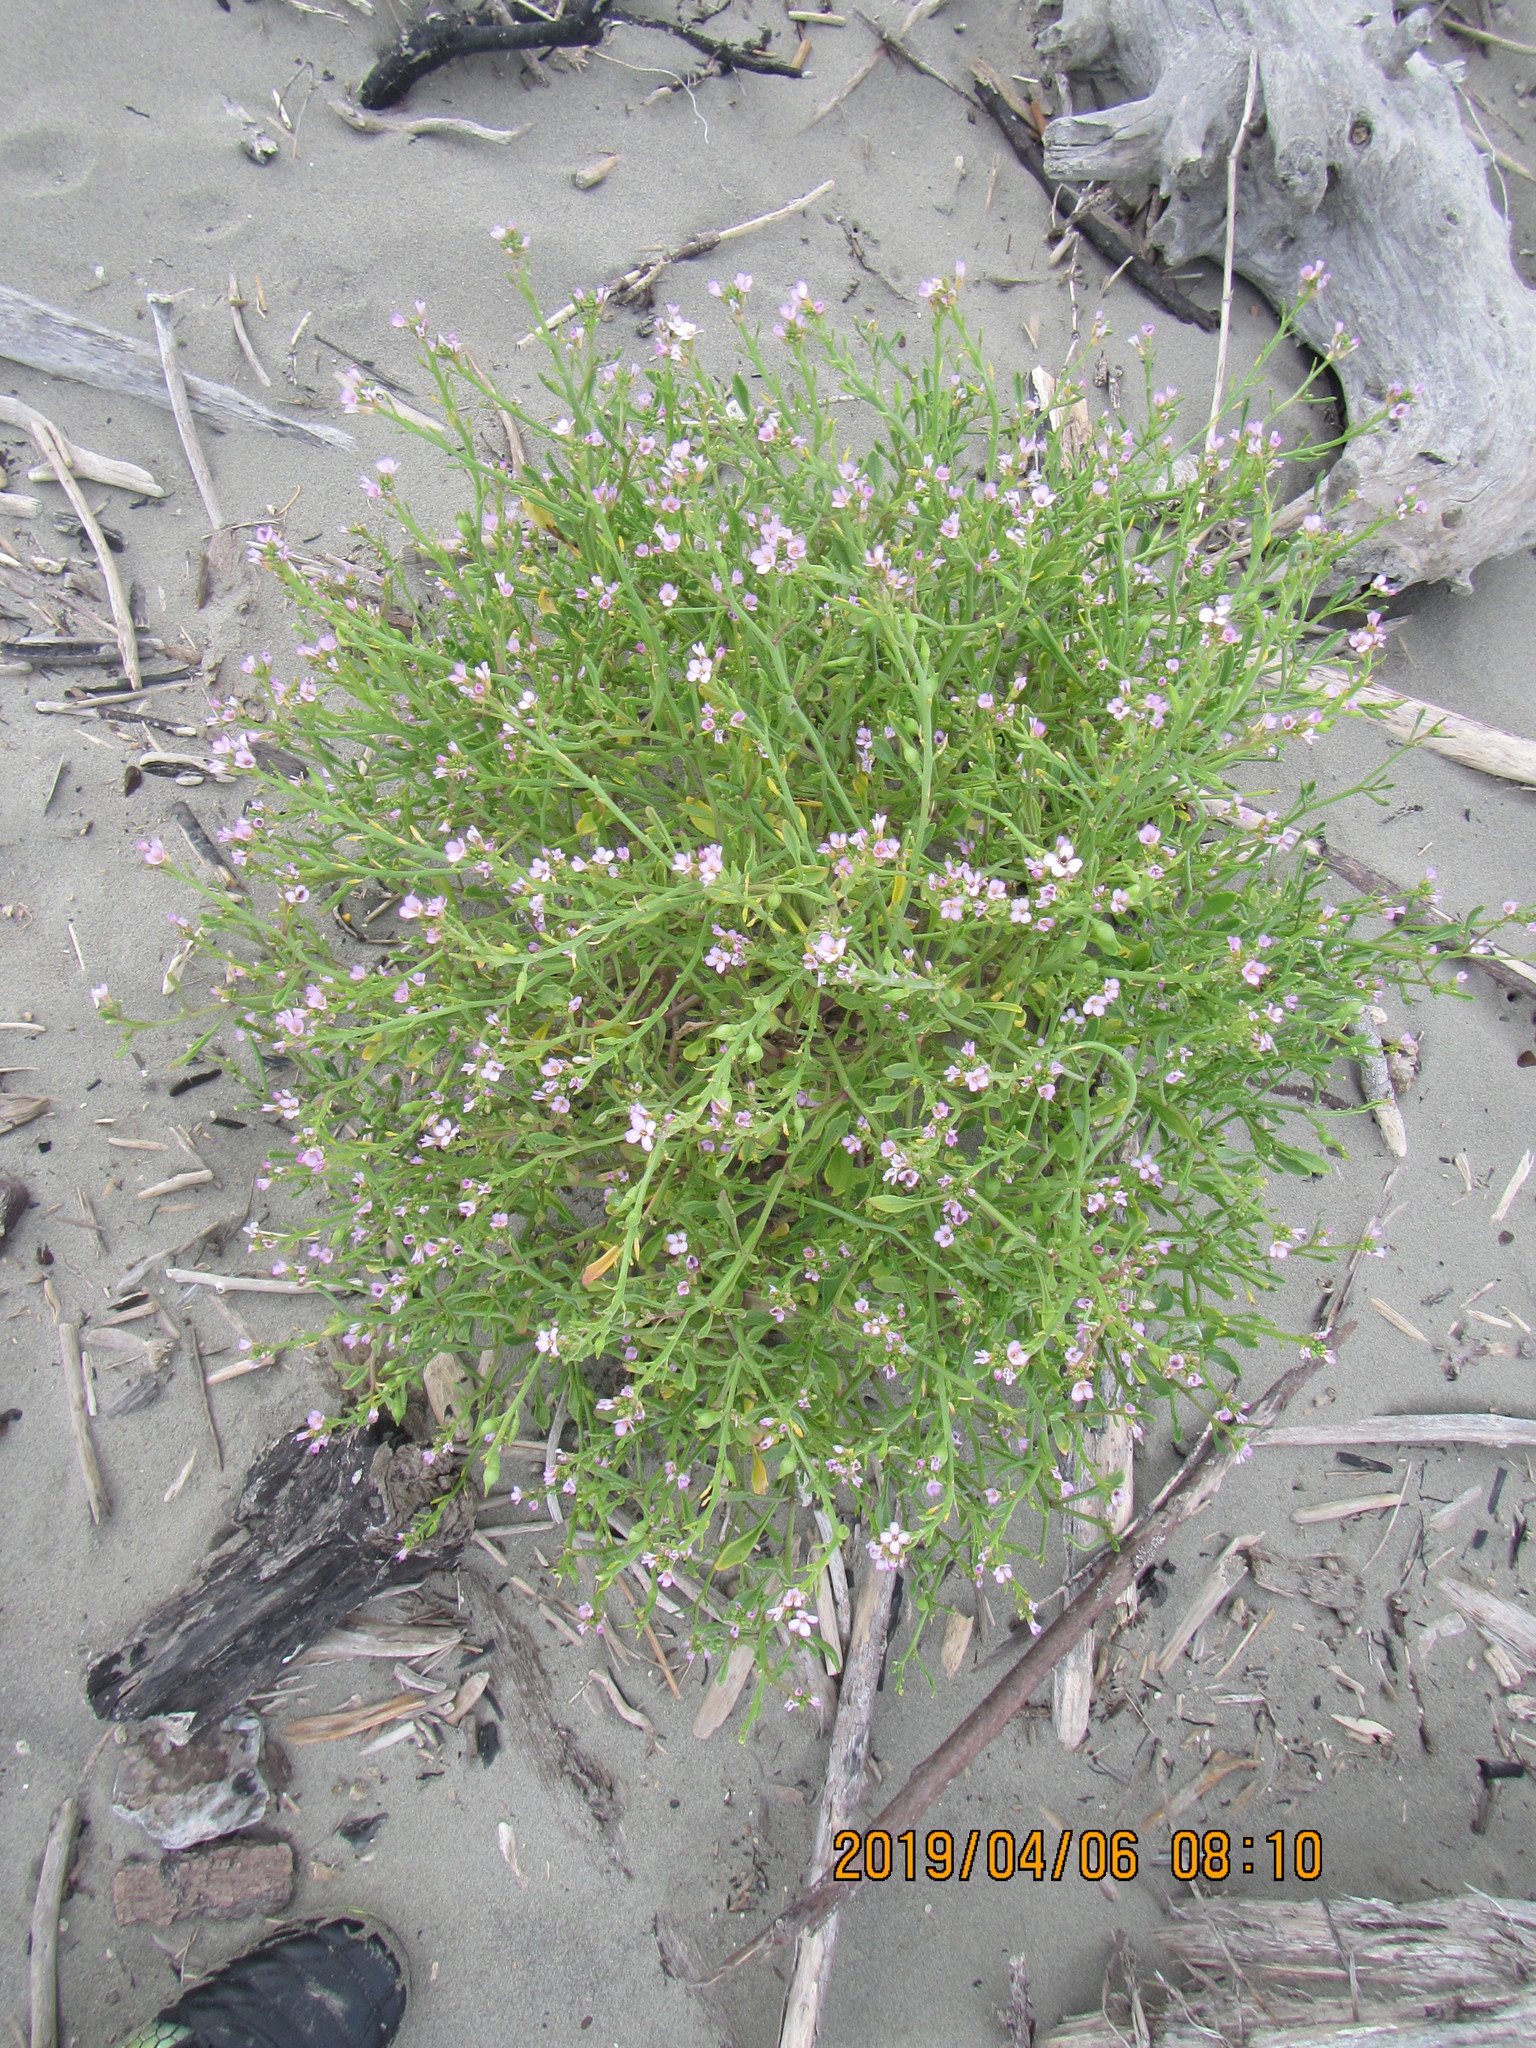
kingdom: Plantae
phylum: Tracheophyta
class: Magnoliopsida
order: Brassicales
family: Brassicaceae
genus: Cakile
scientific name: Cakile maritima
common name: Sea rocket
